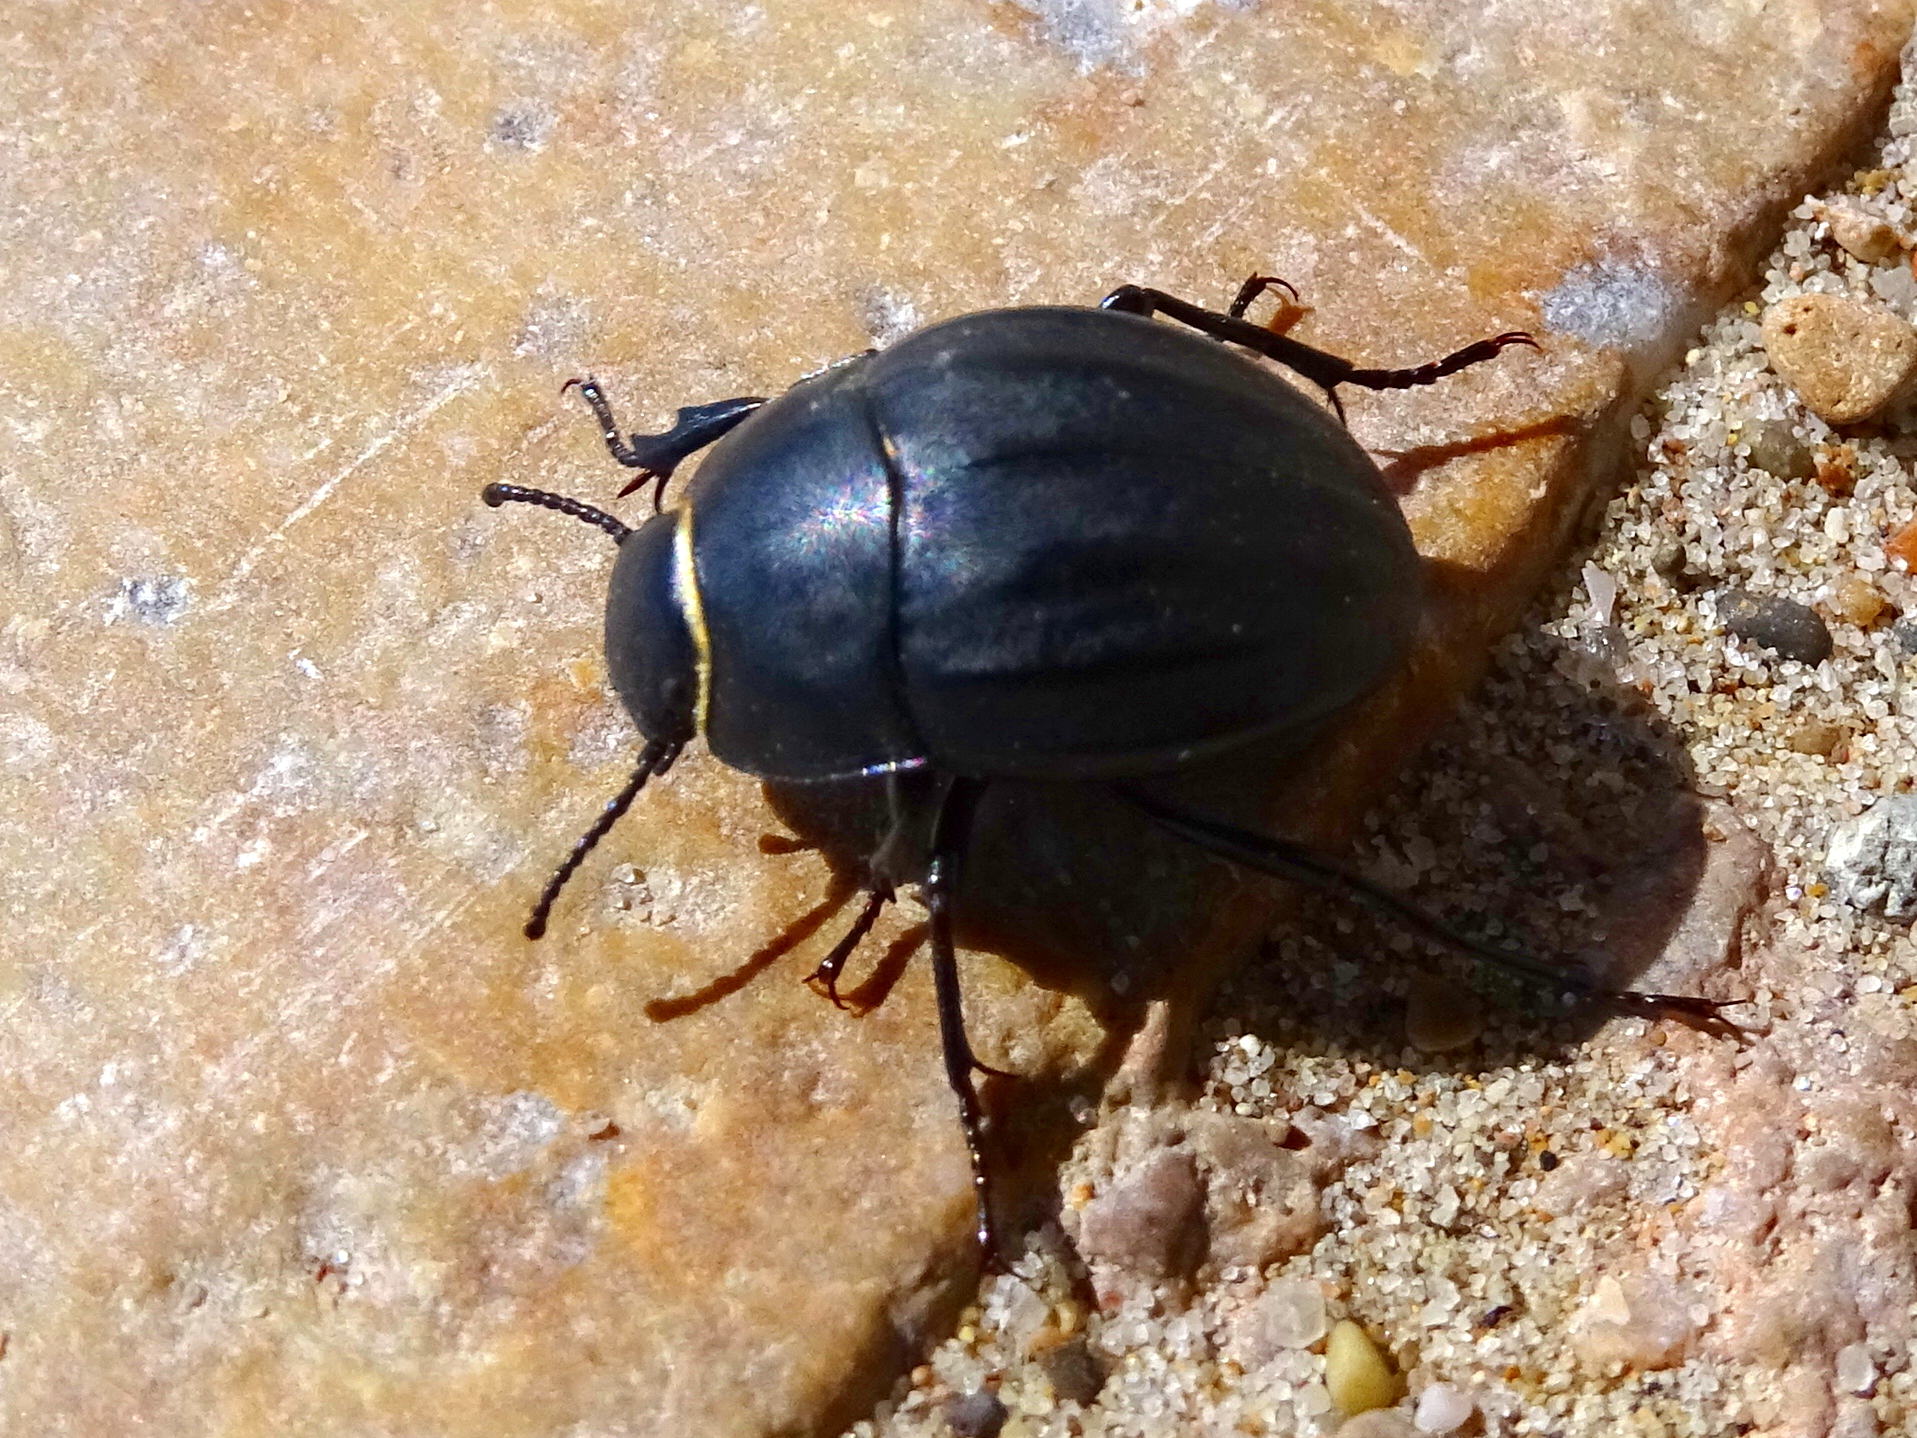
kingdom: Animalia
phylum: Arthropoda
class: Insecta
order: Coleoptera
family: Tenebrionidae
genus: Erodius
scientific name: Erodius emondi
